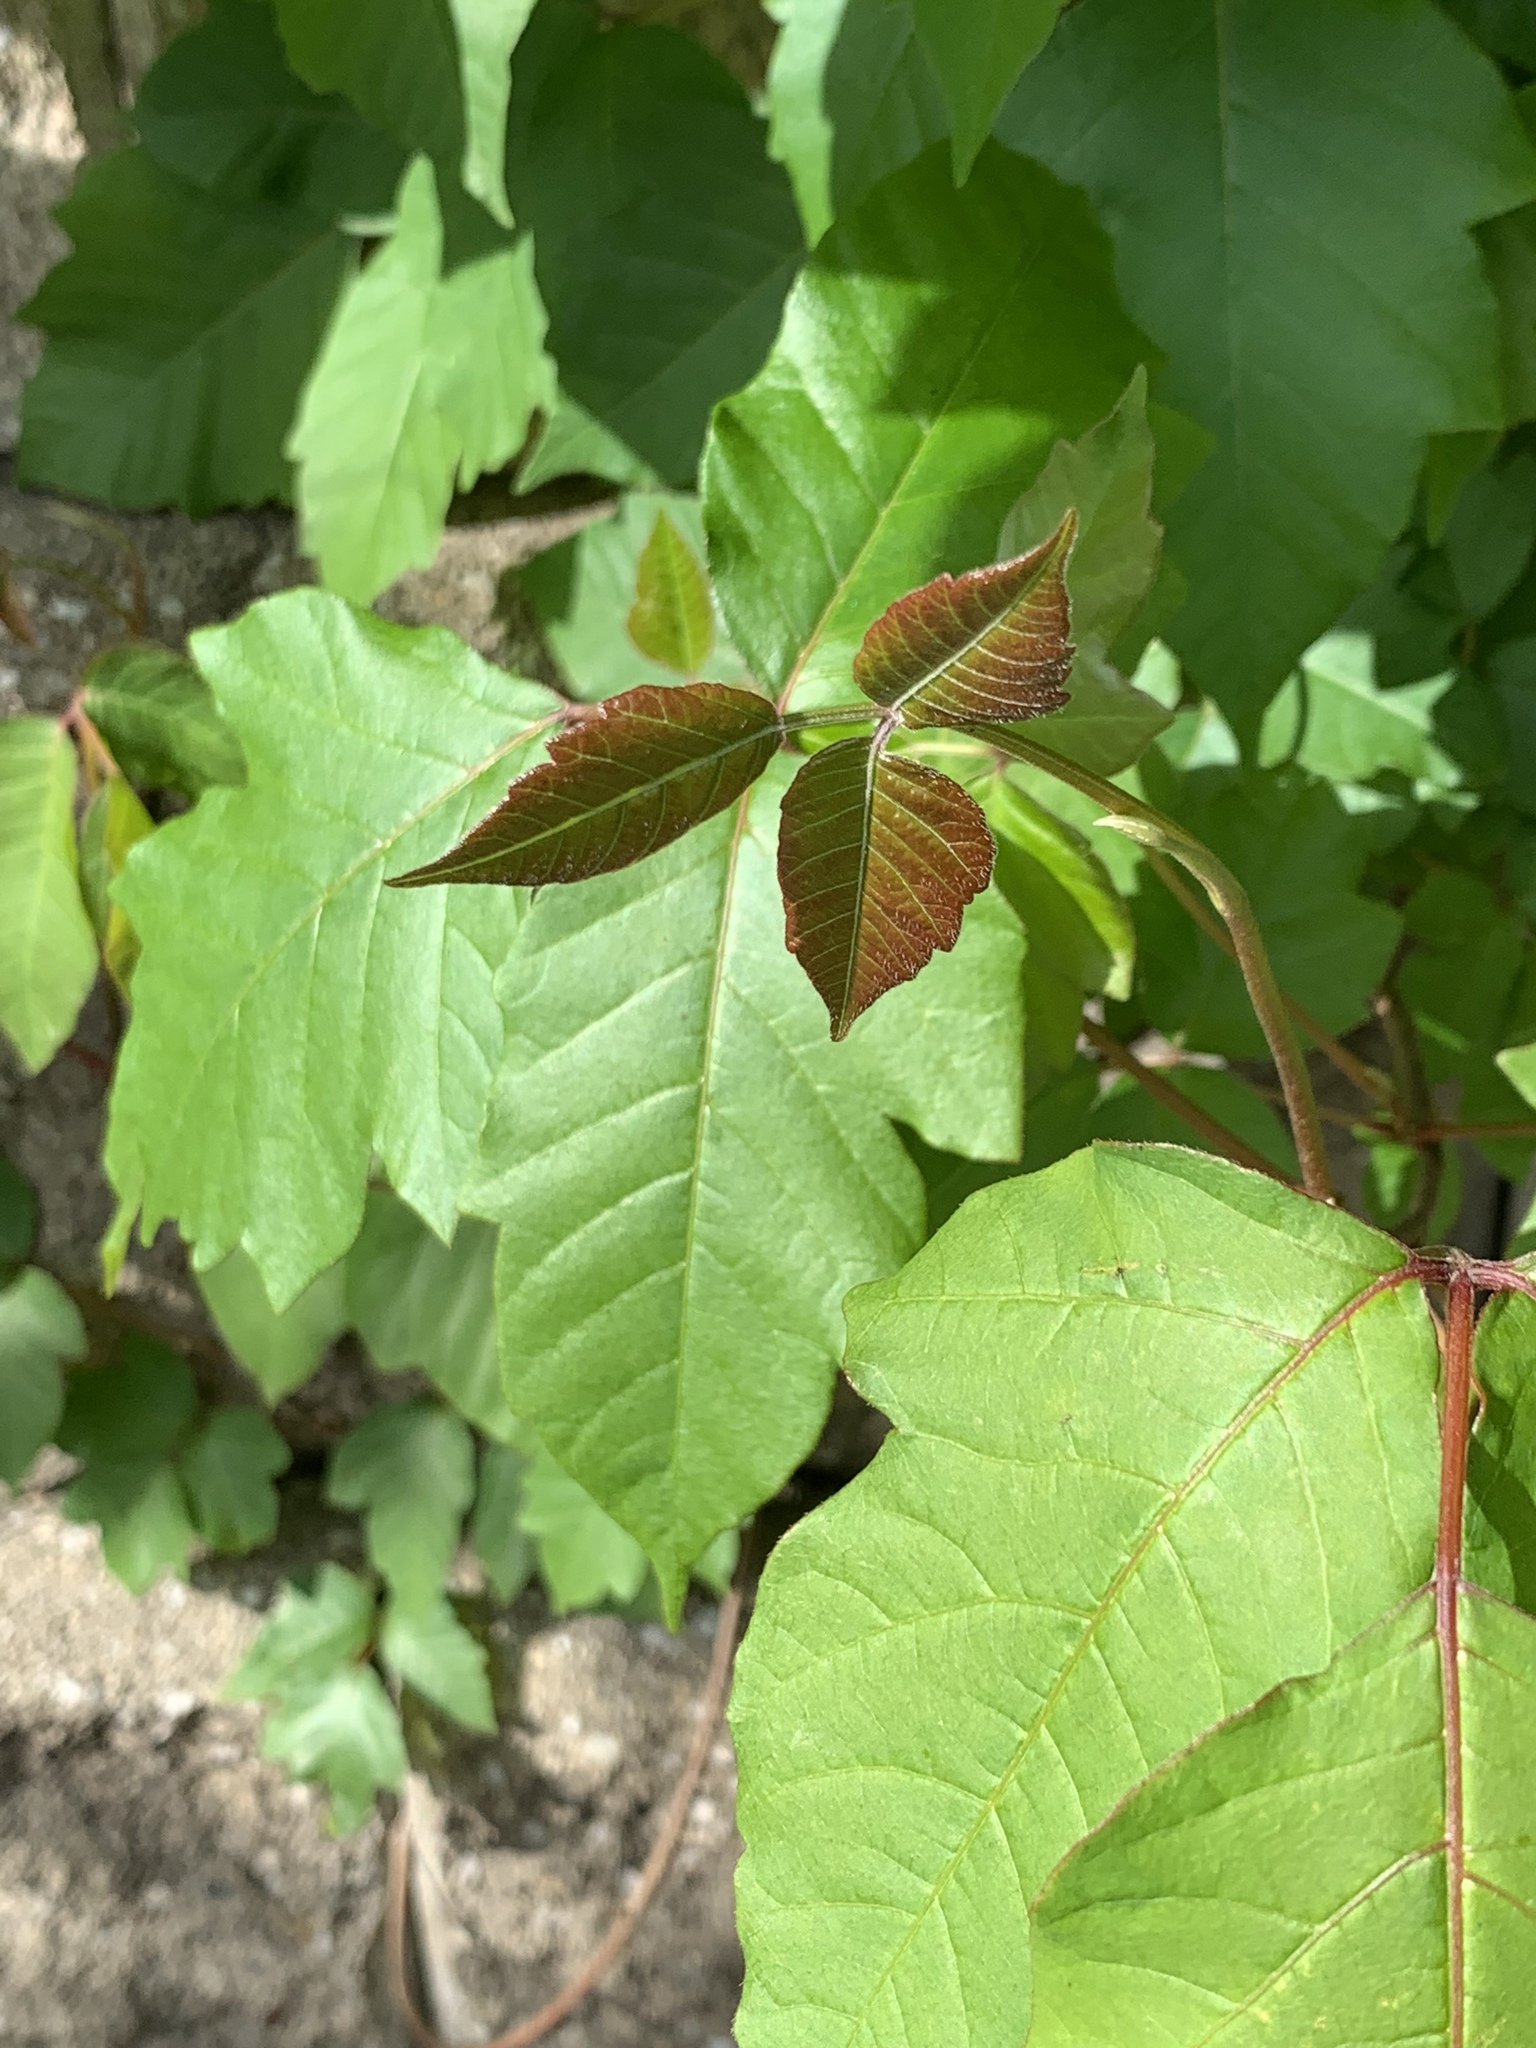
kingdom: Plantae
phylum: Tracheophyta
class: Magnoliopsida
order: Sapindales
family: Anacardiaceae
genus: Toxicodendron
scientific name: Toxicodendron radicans
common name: Poison ivy
